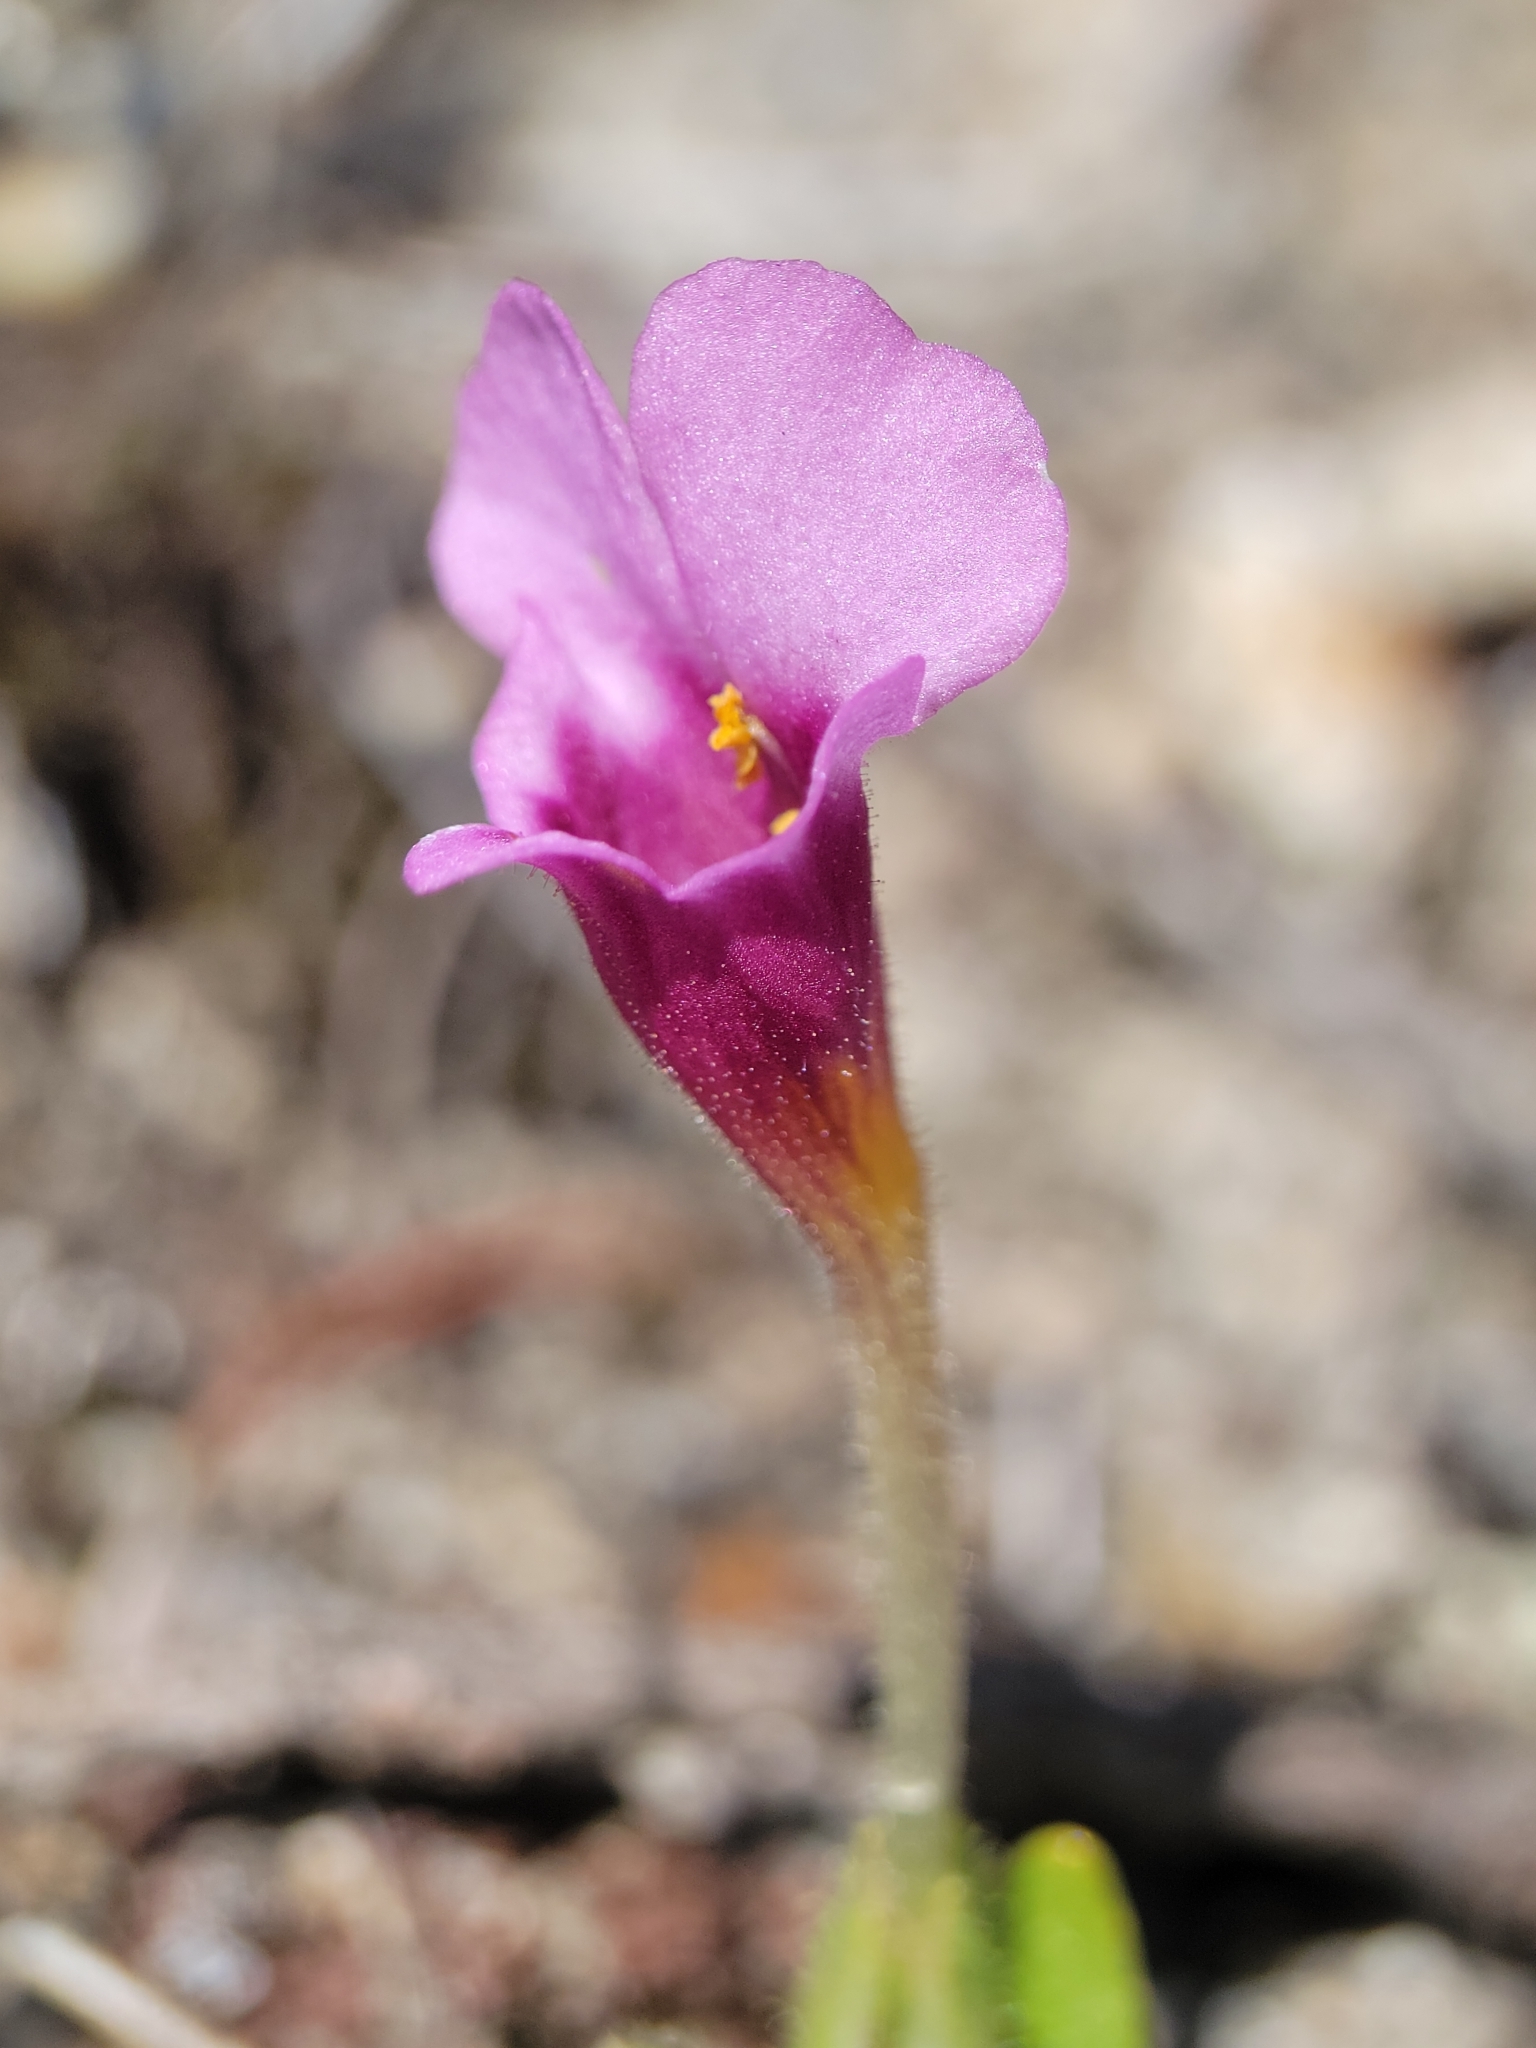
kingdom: Plantae
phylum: Tracheophyta
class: Magnoliopsida
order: Lamiales
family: Phrymaceae
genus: Diplacus
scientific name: Diplacus douglasii
